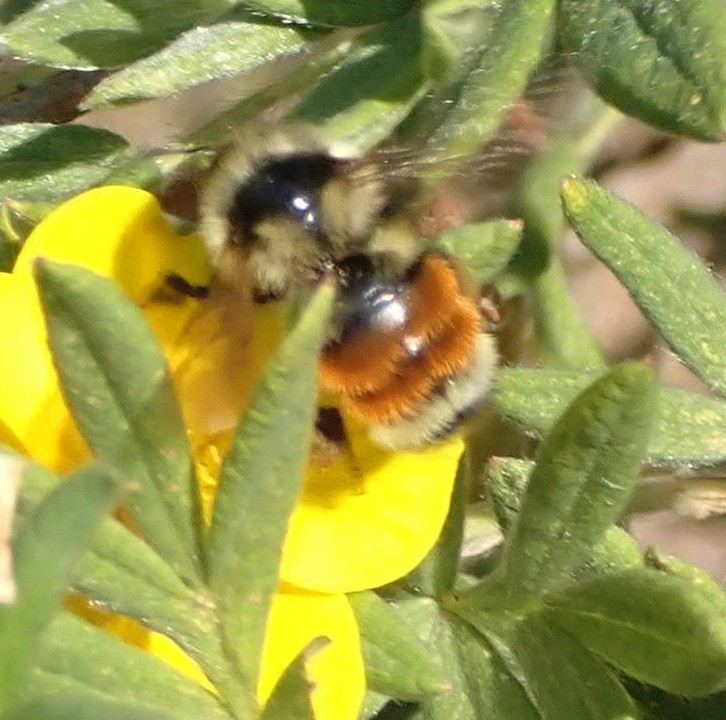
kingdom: Animalia
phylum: Arthropoda
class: Insecta
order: Hymenoptera
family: Apidae
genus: Bombus
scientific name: Bombus ternarius
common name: Tri-colored bumble bee
